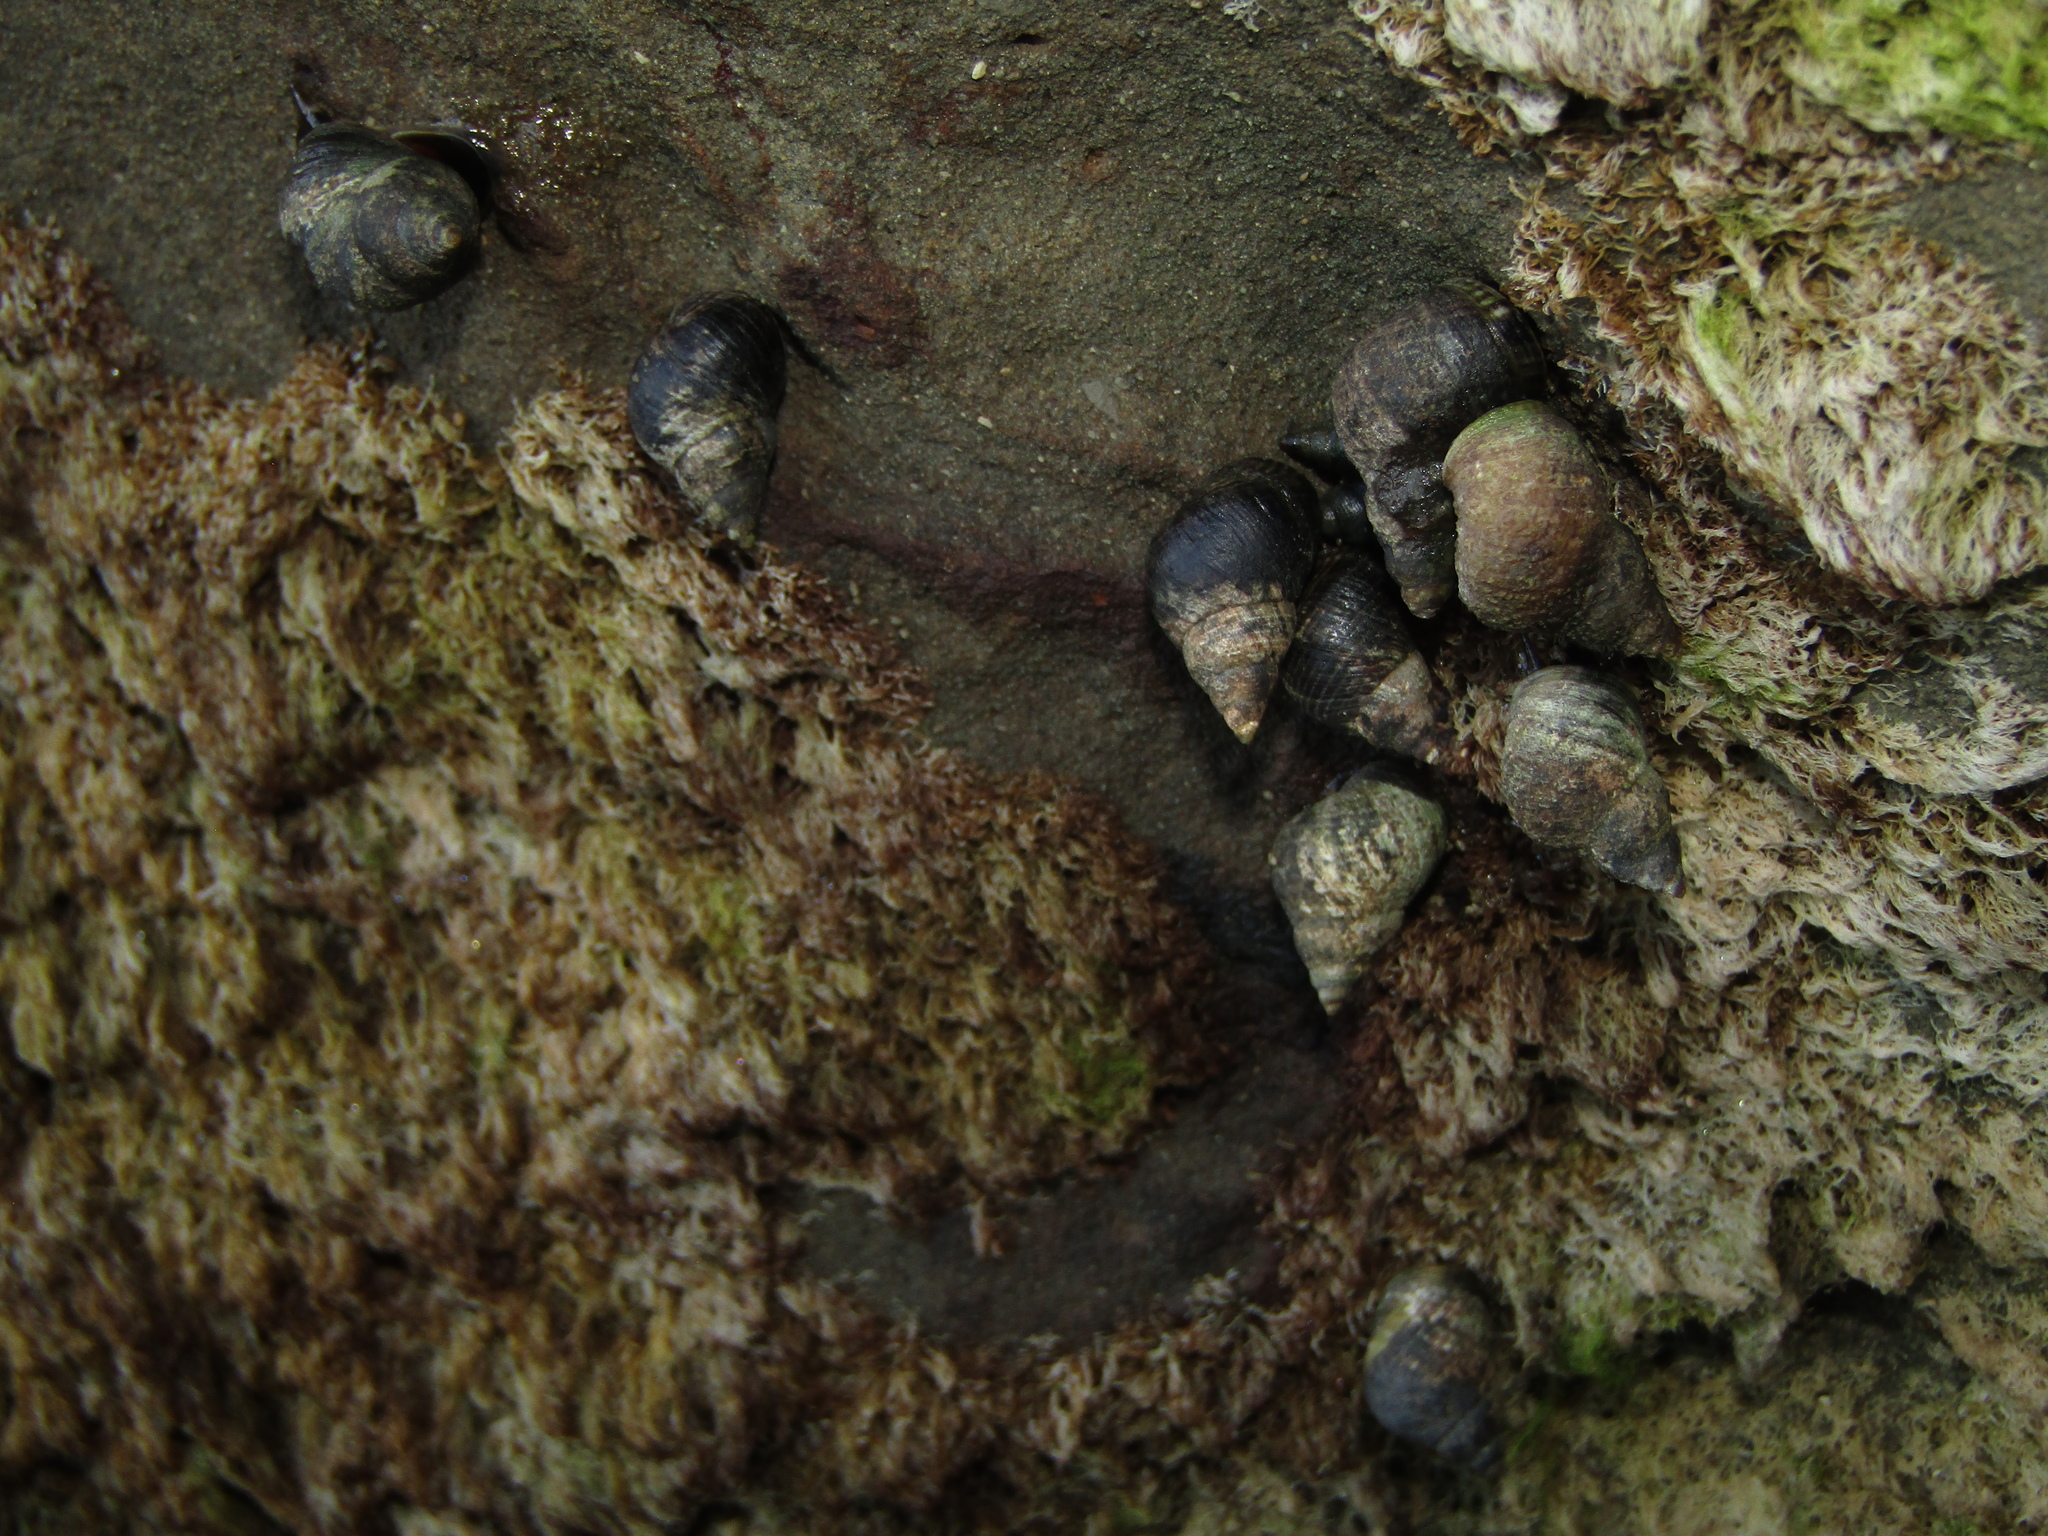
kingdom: Animalia
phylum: Mollusca
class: Gastropoda
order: Littorinimorpha
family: Littorinidae
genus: Austrolittorina
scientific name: Austrolittorina cincta
